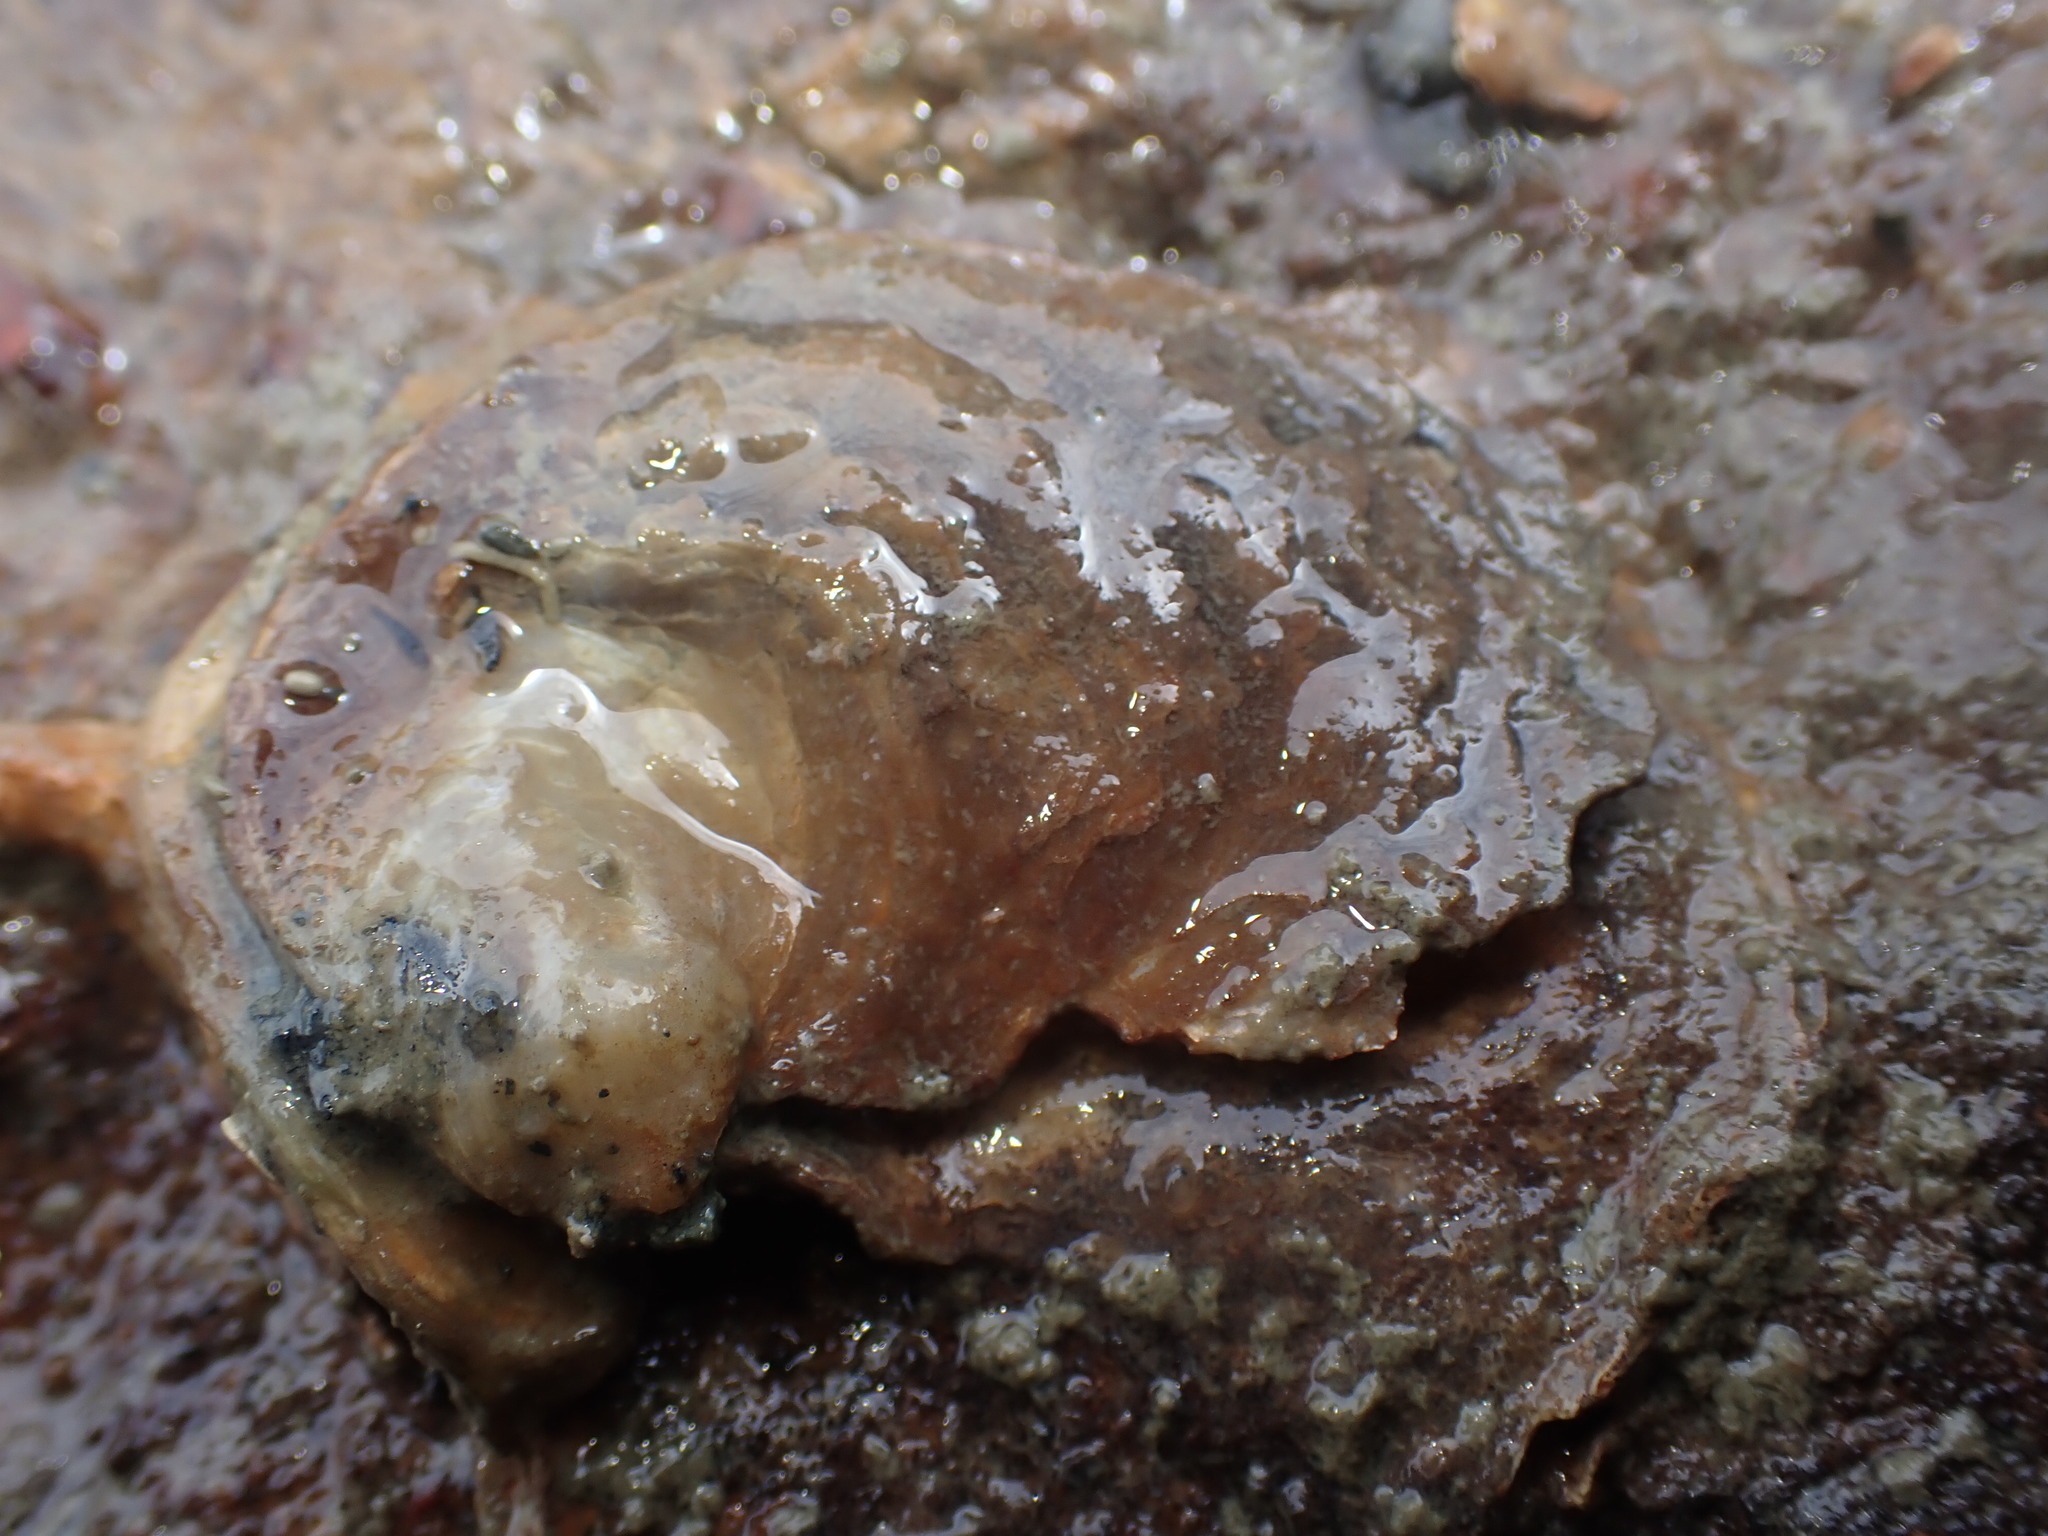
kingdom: Animalia
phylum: Mollusca
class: Bivalvia
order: Ostreida
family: Ostreidae
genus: Ostrea
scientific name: Ostrea chilensis
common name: Chilean oyster
